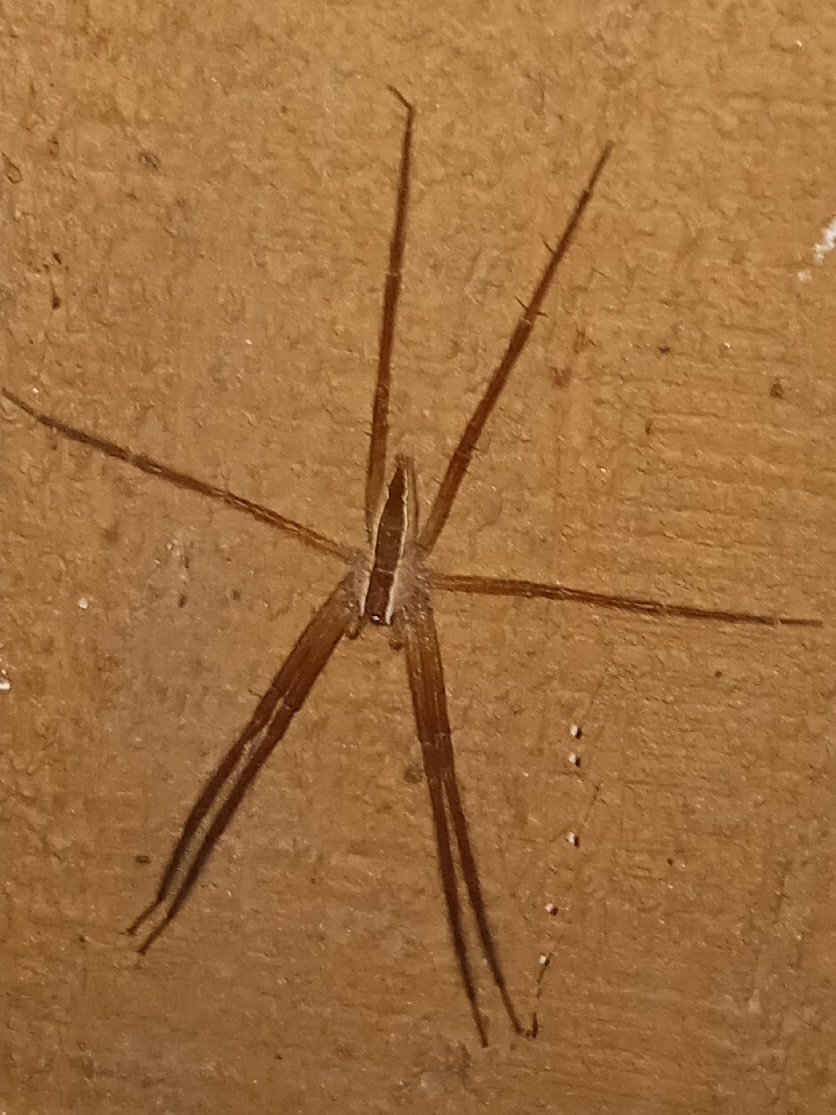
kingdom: Animalia
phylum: Arthropoda
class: Arachnida
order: Araneae
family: Pisauridae
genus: Pisaurina
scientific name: Pisaurina mira
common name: American nursery web spider
